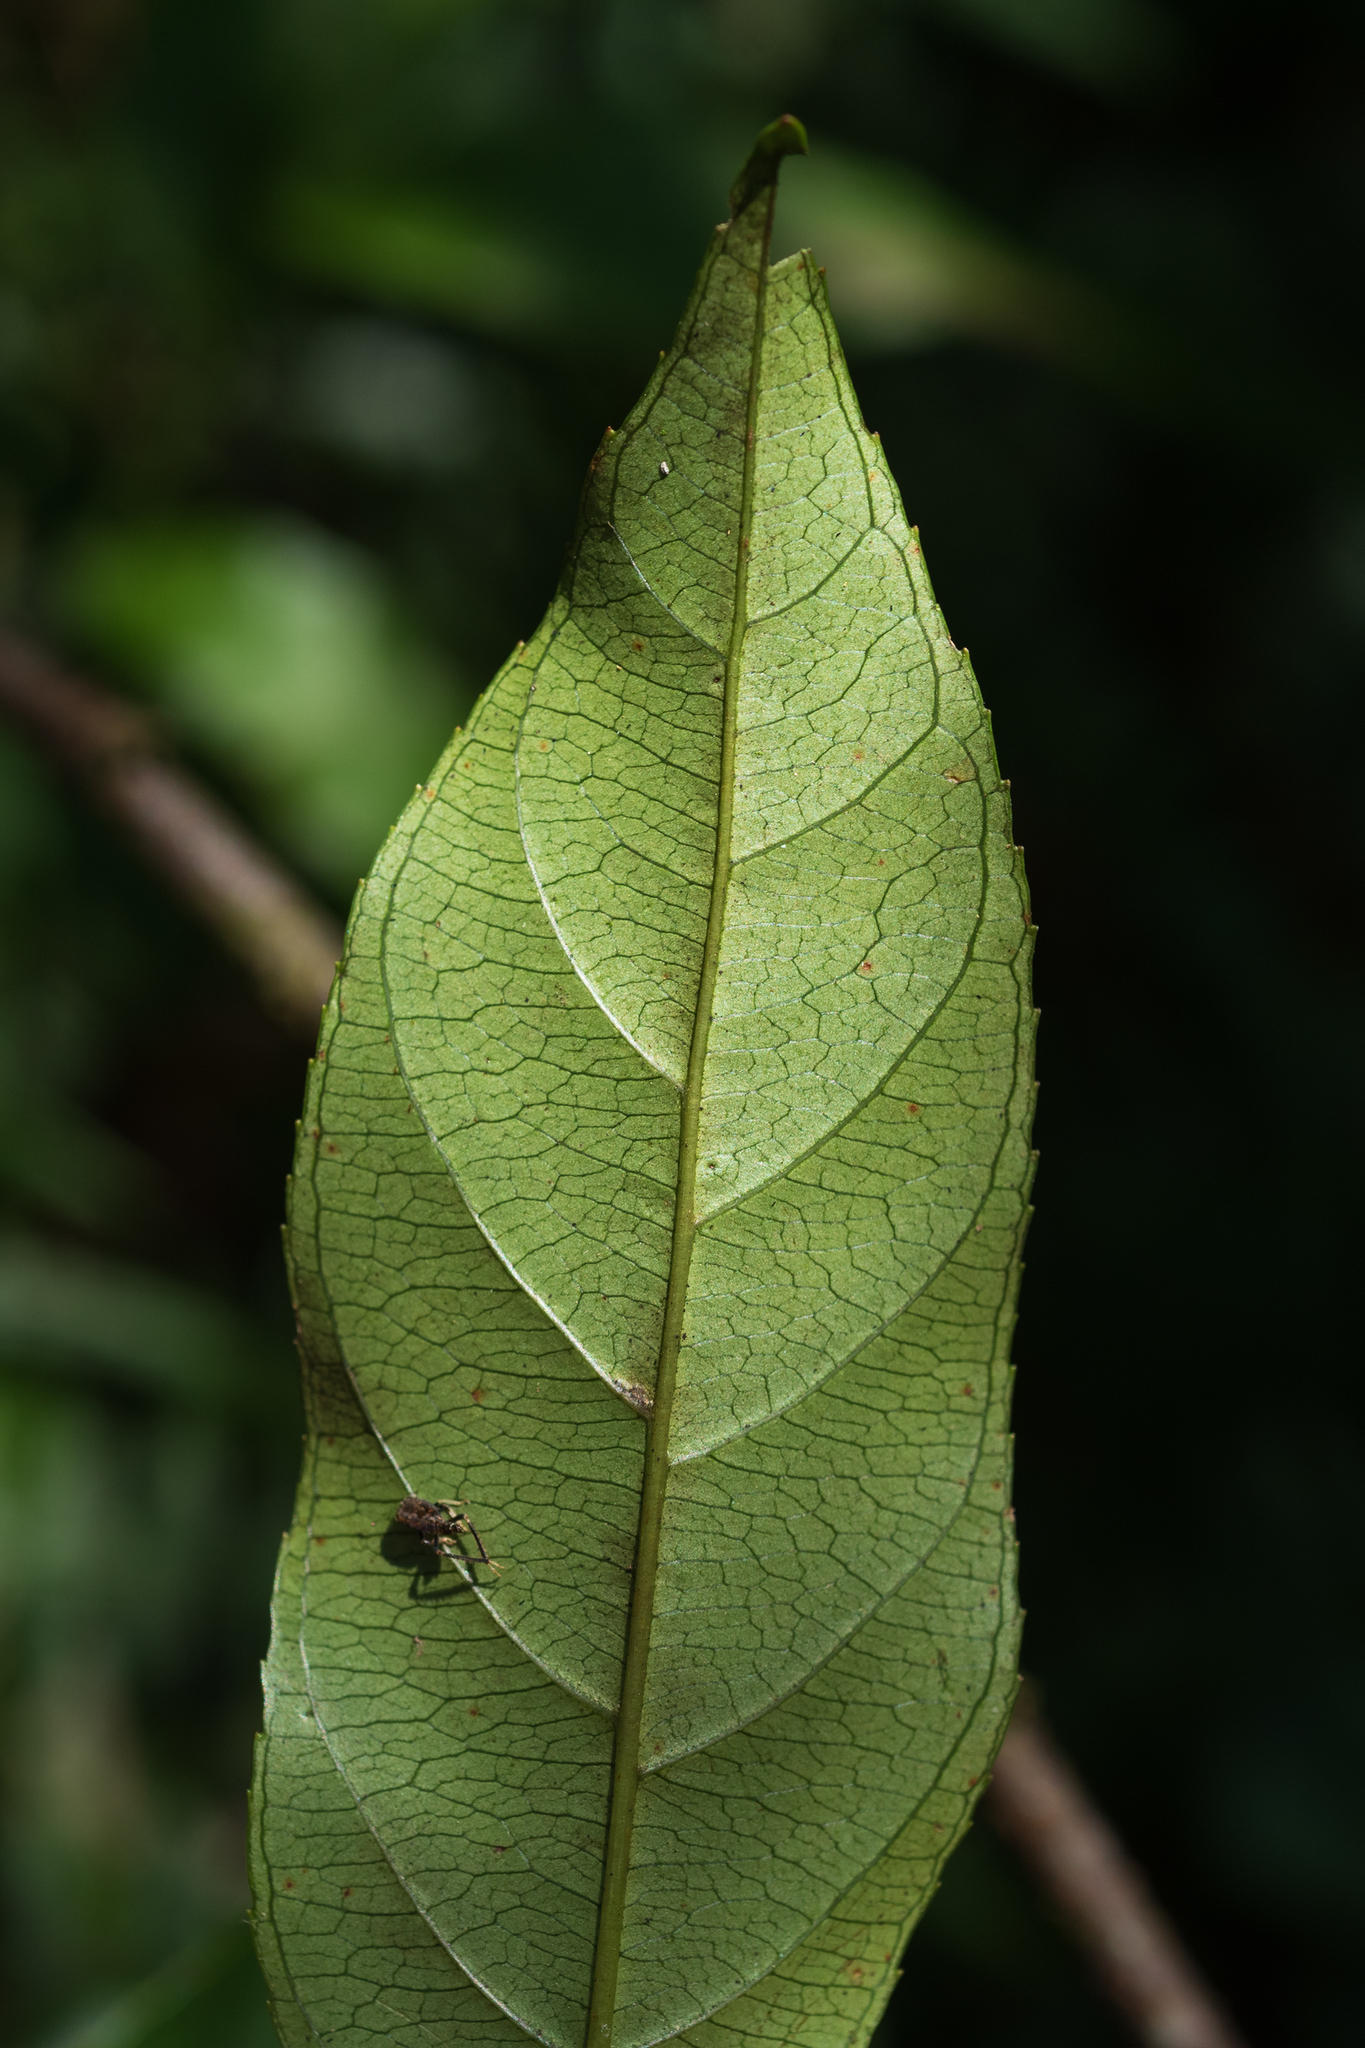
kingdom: Plantae
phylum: Tracheophyta
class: Magnoliopsida
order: Saxifragales
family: Iteaceae
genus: Itea
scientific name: Itea parviflora
